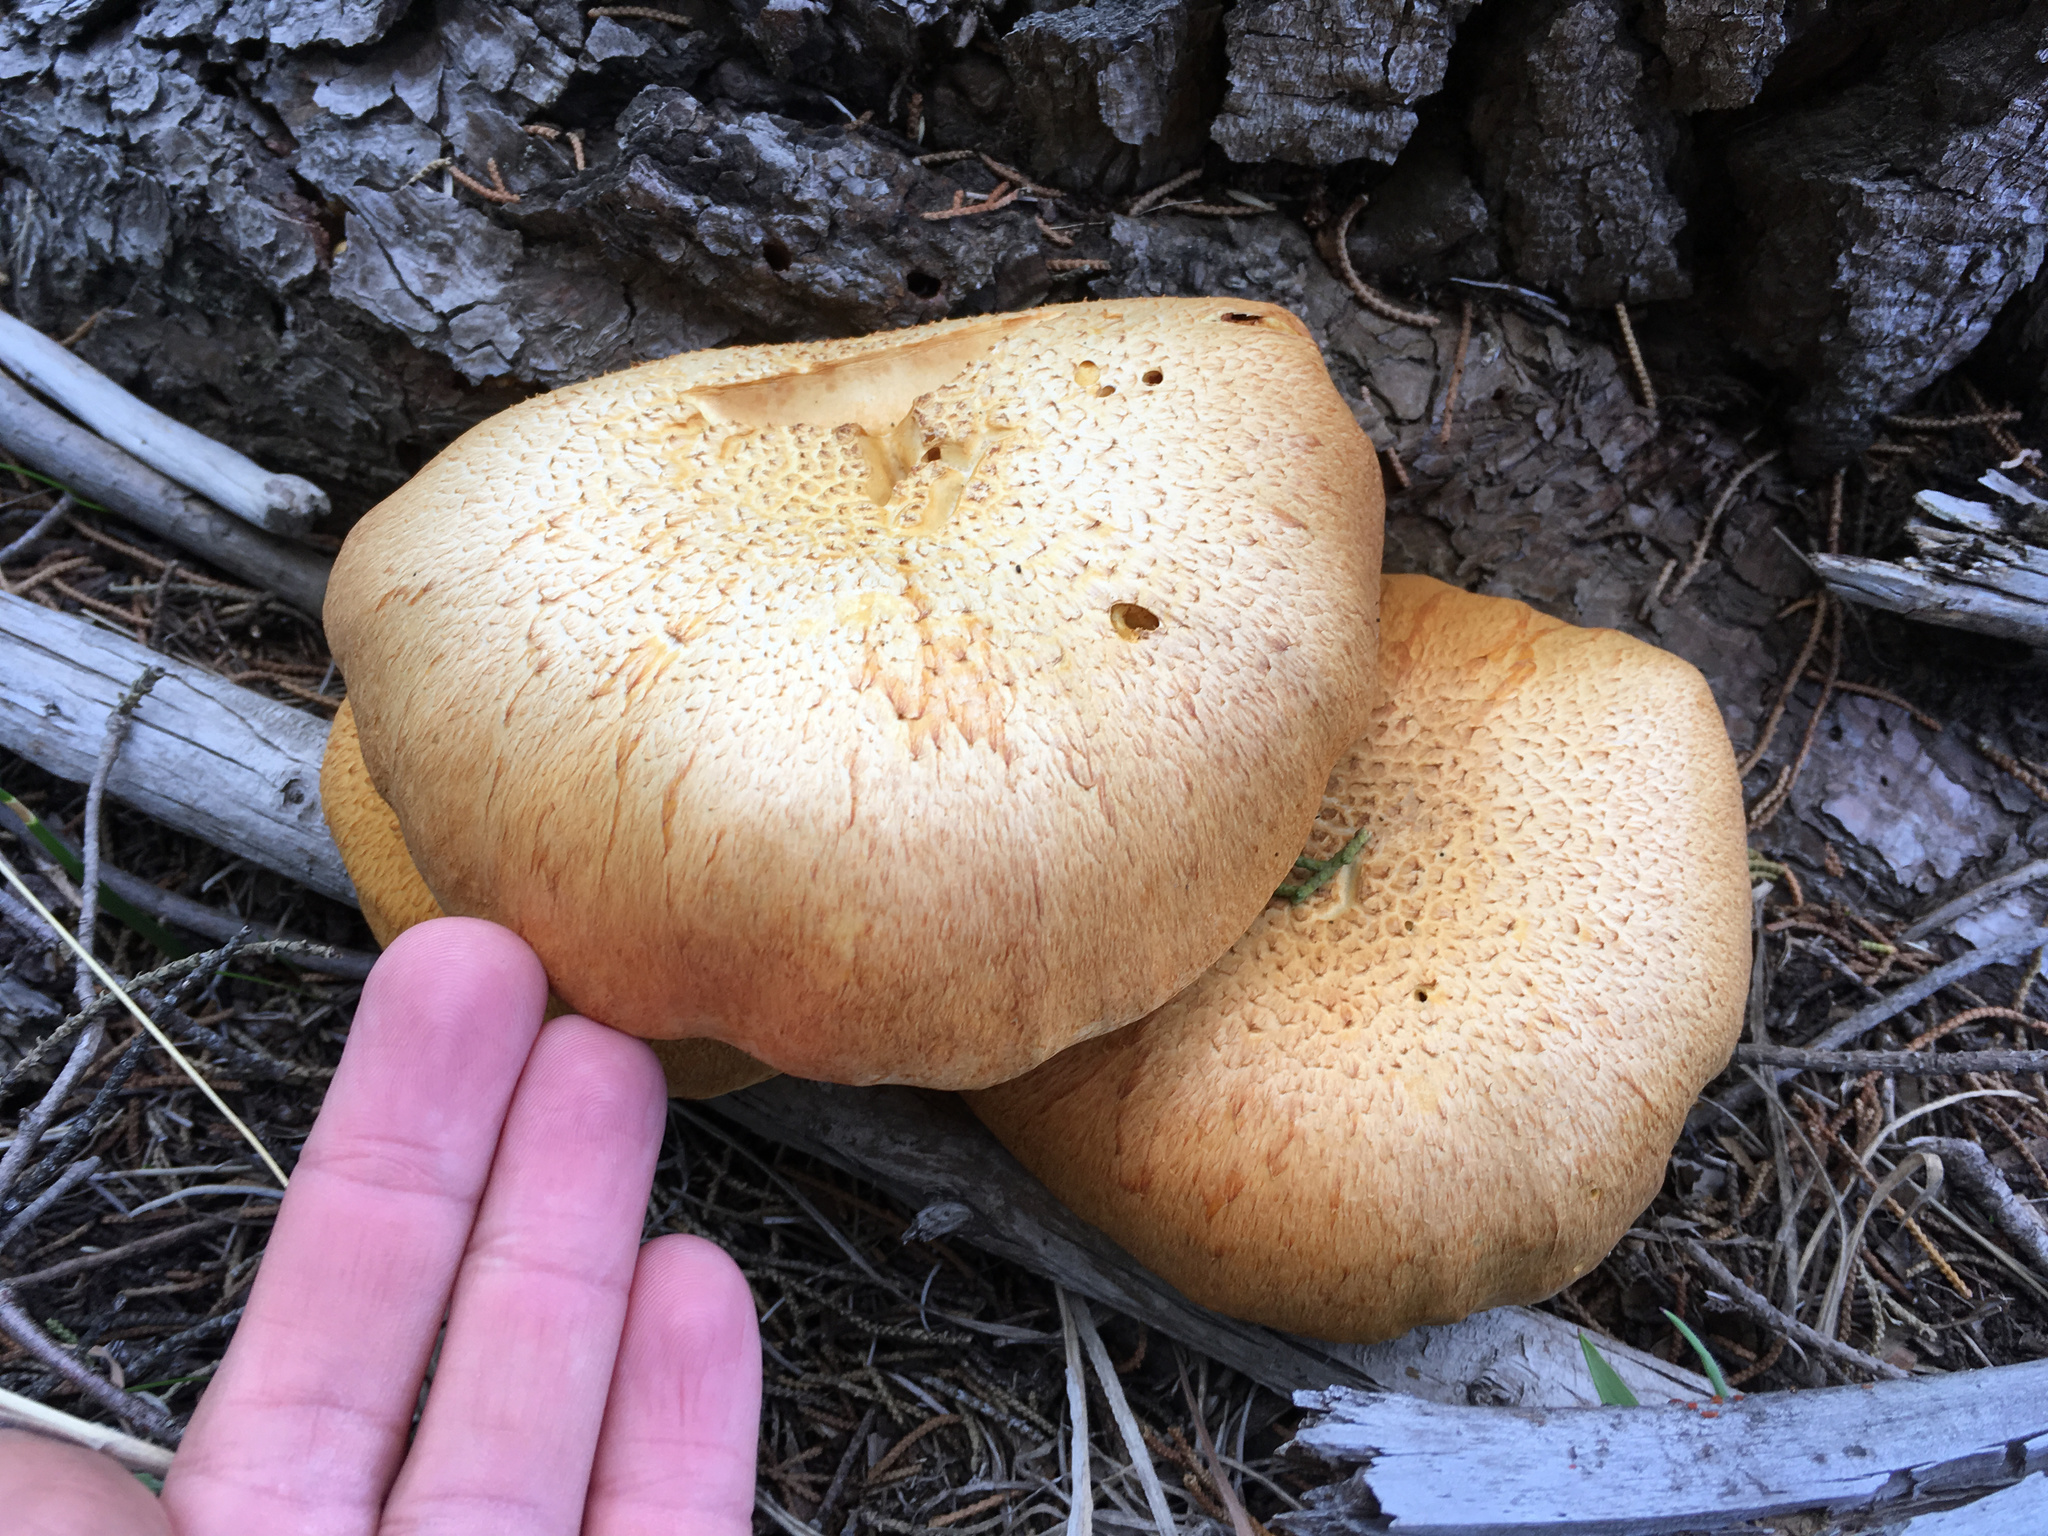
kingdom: Fungi
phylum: Basidiomycota
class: Agaricomycetes
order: Agaricales
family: Hymenogastraceae
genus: Gymnopilus
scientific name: Gymnopilus junonius
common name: Spectacular rustgill
